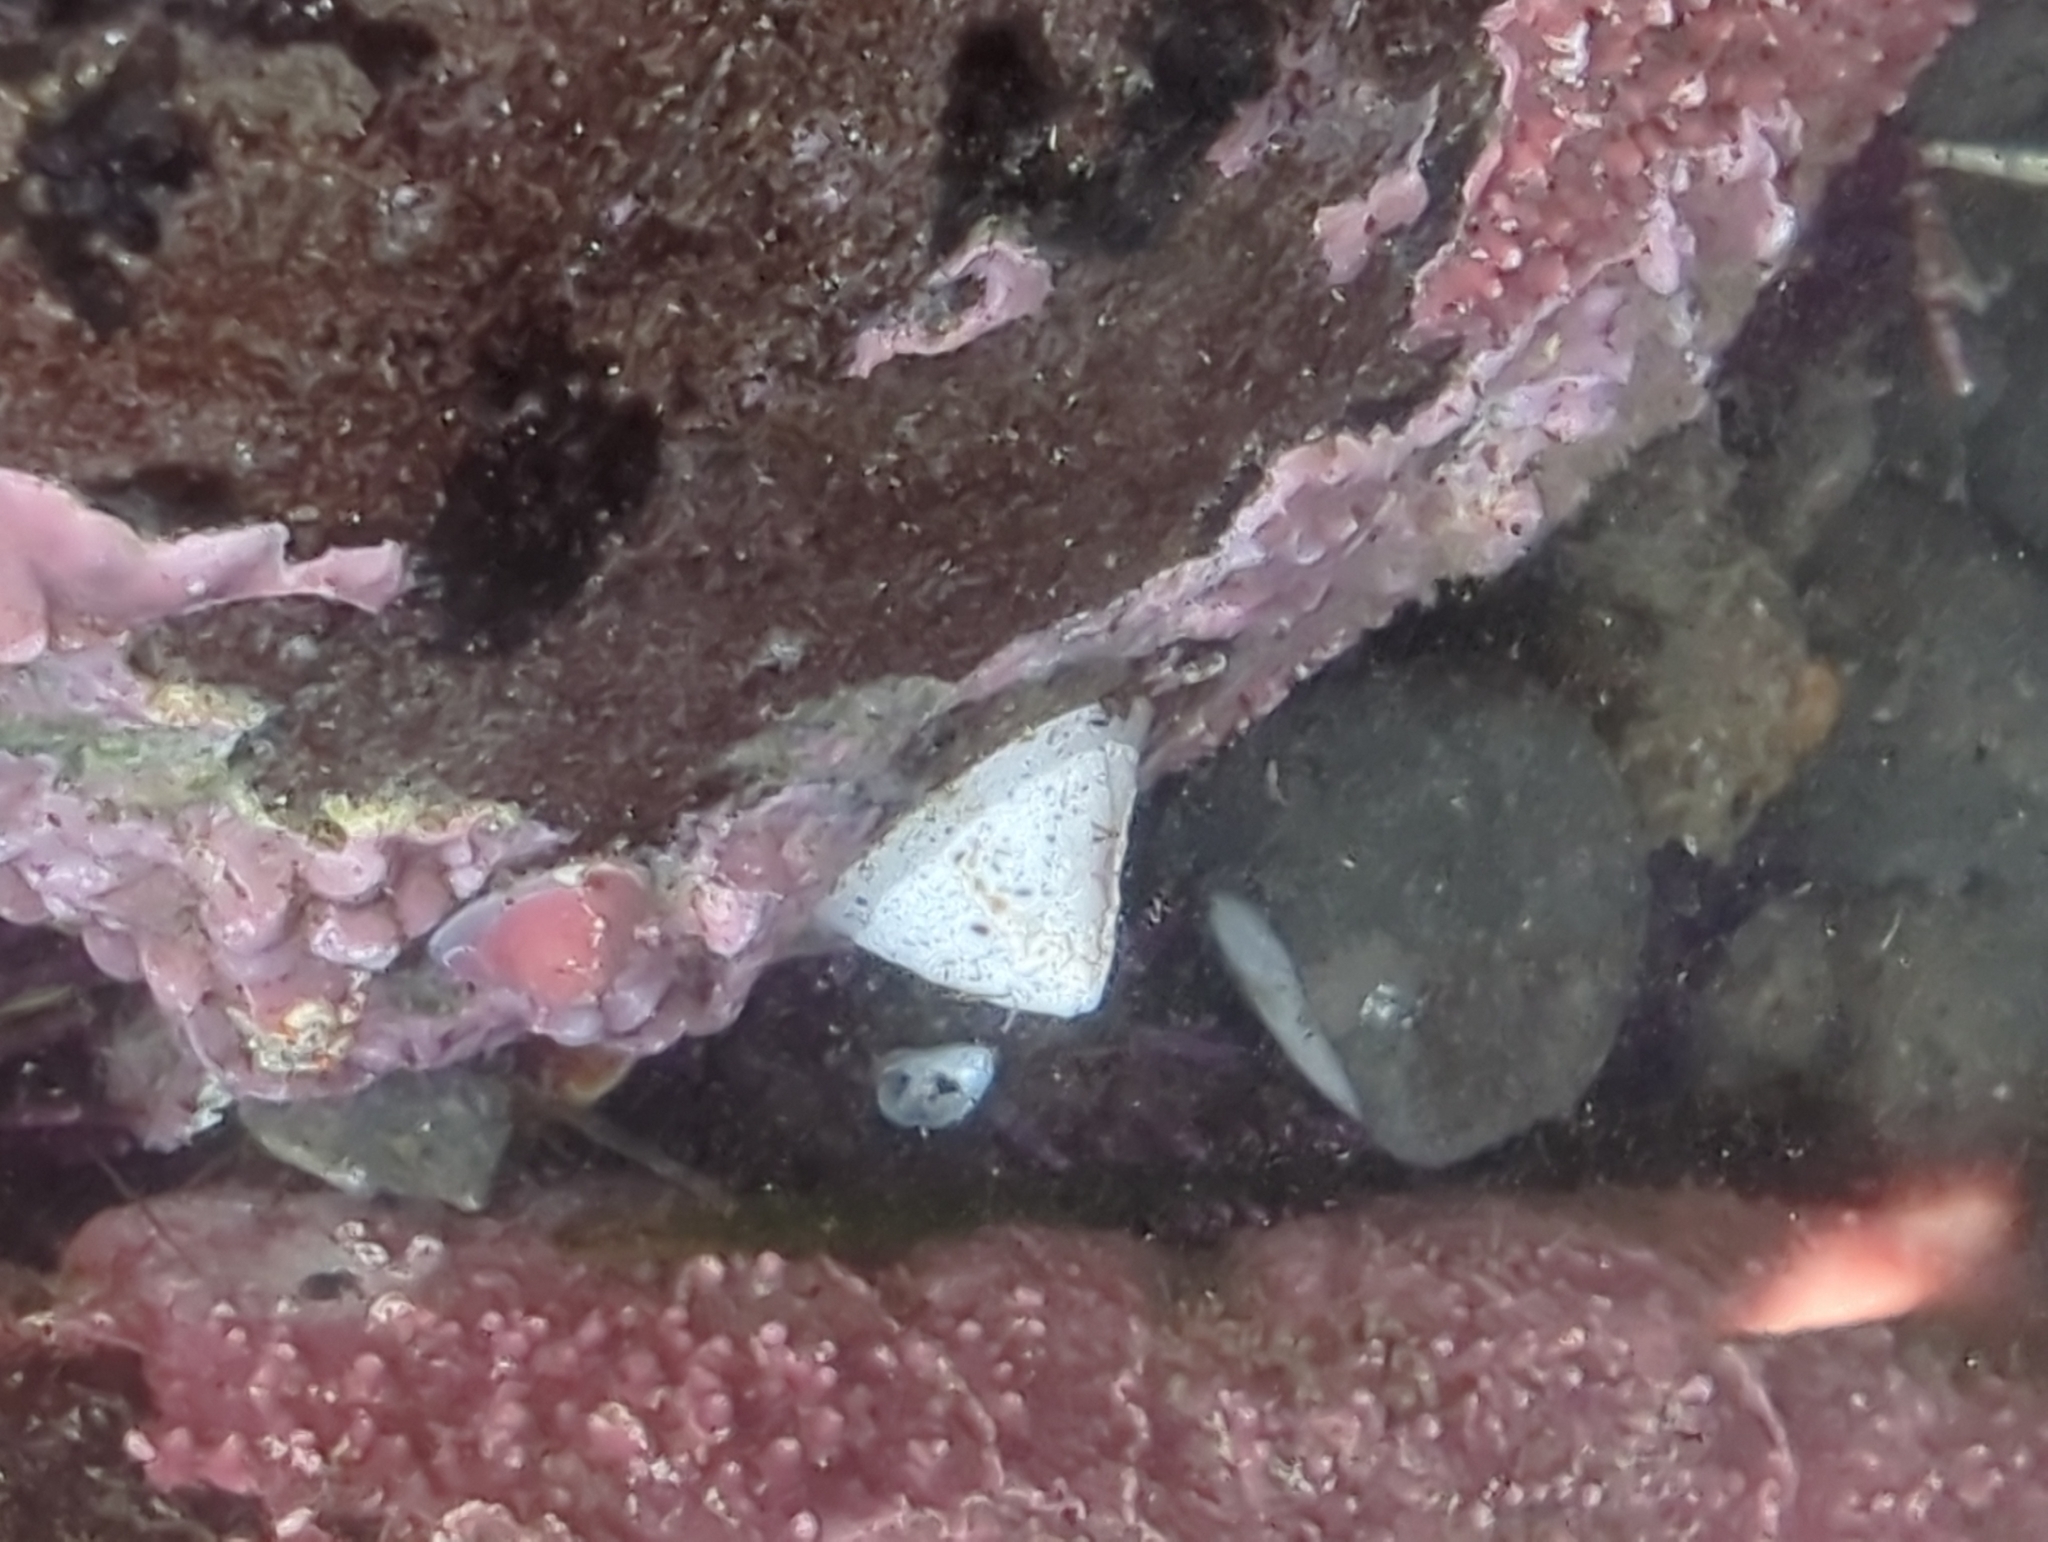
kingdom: Animalia
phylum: Mollusca
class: Gastropoda
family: Acmaeidae
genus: Acmaea
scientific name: Acmaea mitra
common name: Pacific white cap limpet
